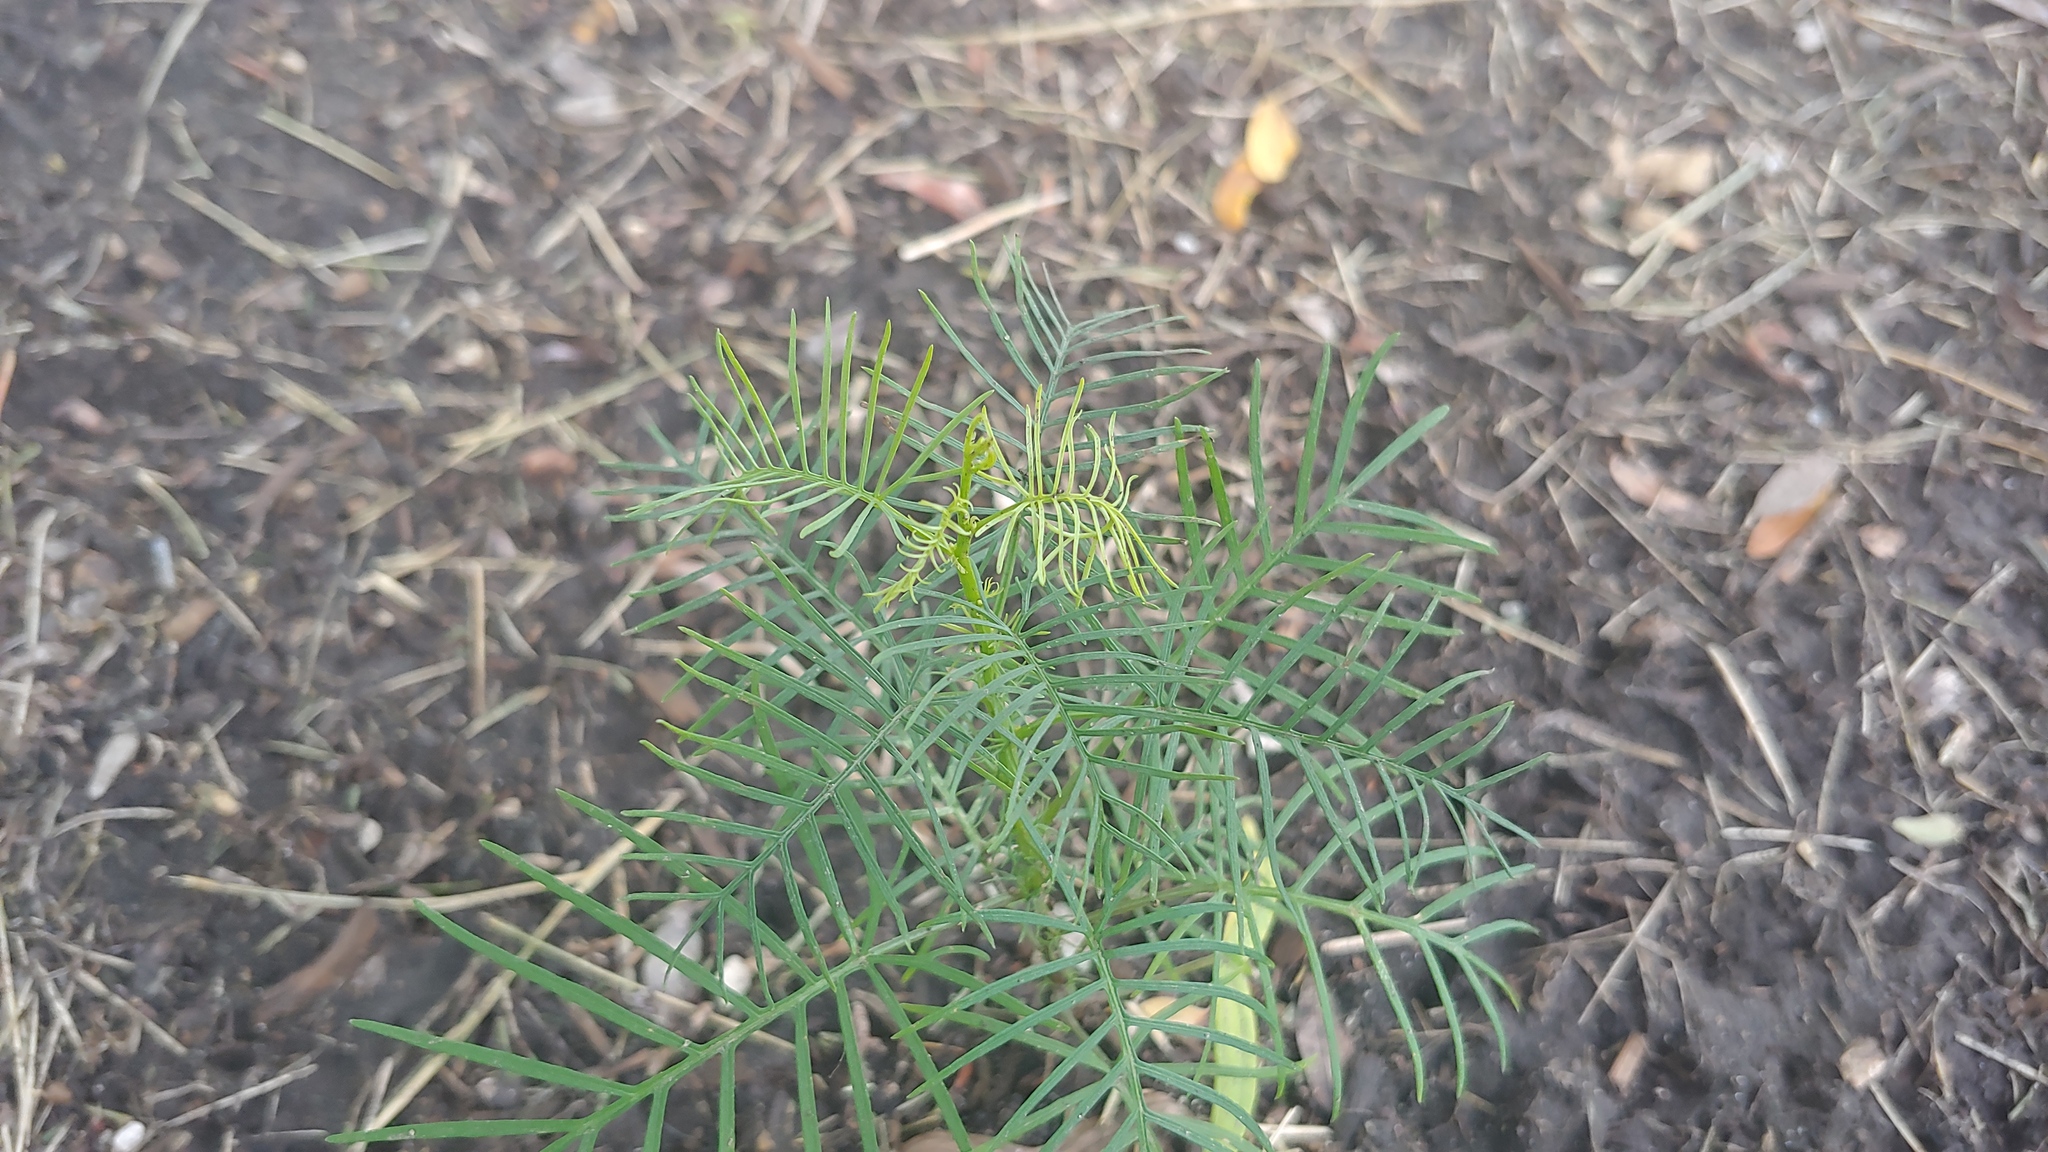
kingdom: Plantae
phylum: Tracheophyta
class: Magnoliopsida
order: Solanales
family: Convolvulaceae
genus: Ipomoea
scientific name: Ipomoea quamoclit
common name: Cypress vine
